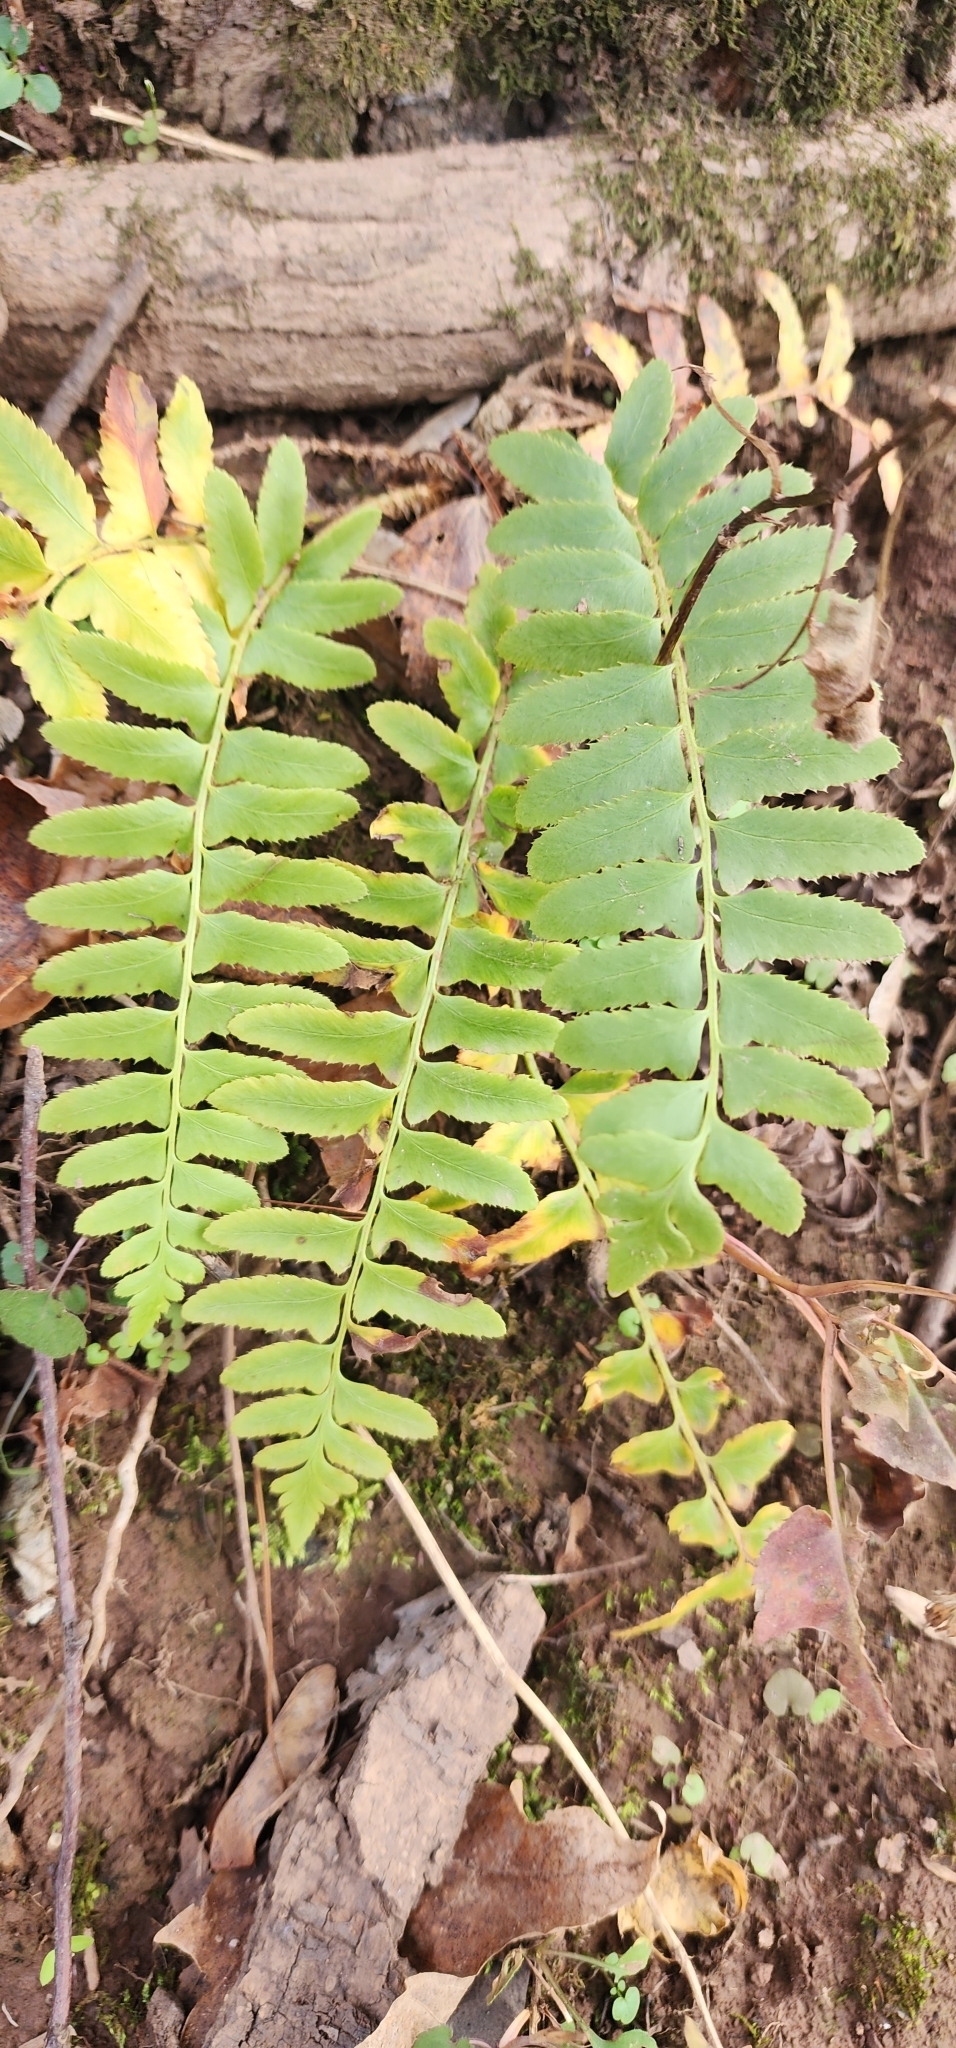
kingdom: Plantae
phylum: Tracheophyta
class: Polypodiopsida
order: Polypodiales
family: Dryopteridaceae
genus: Polystichum
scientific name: Polystichum acrostichoides
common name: Christmas fern
